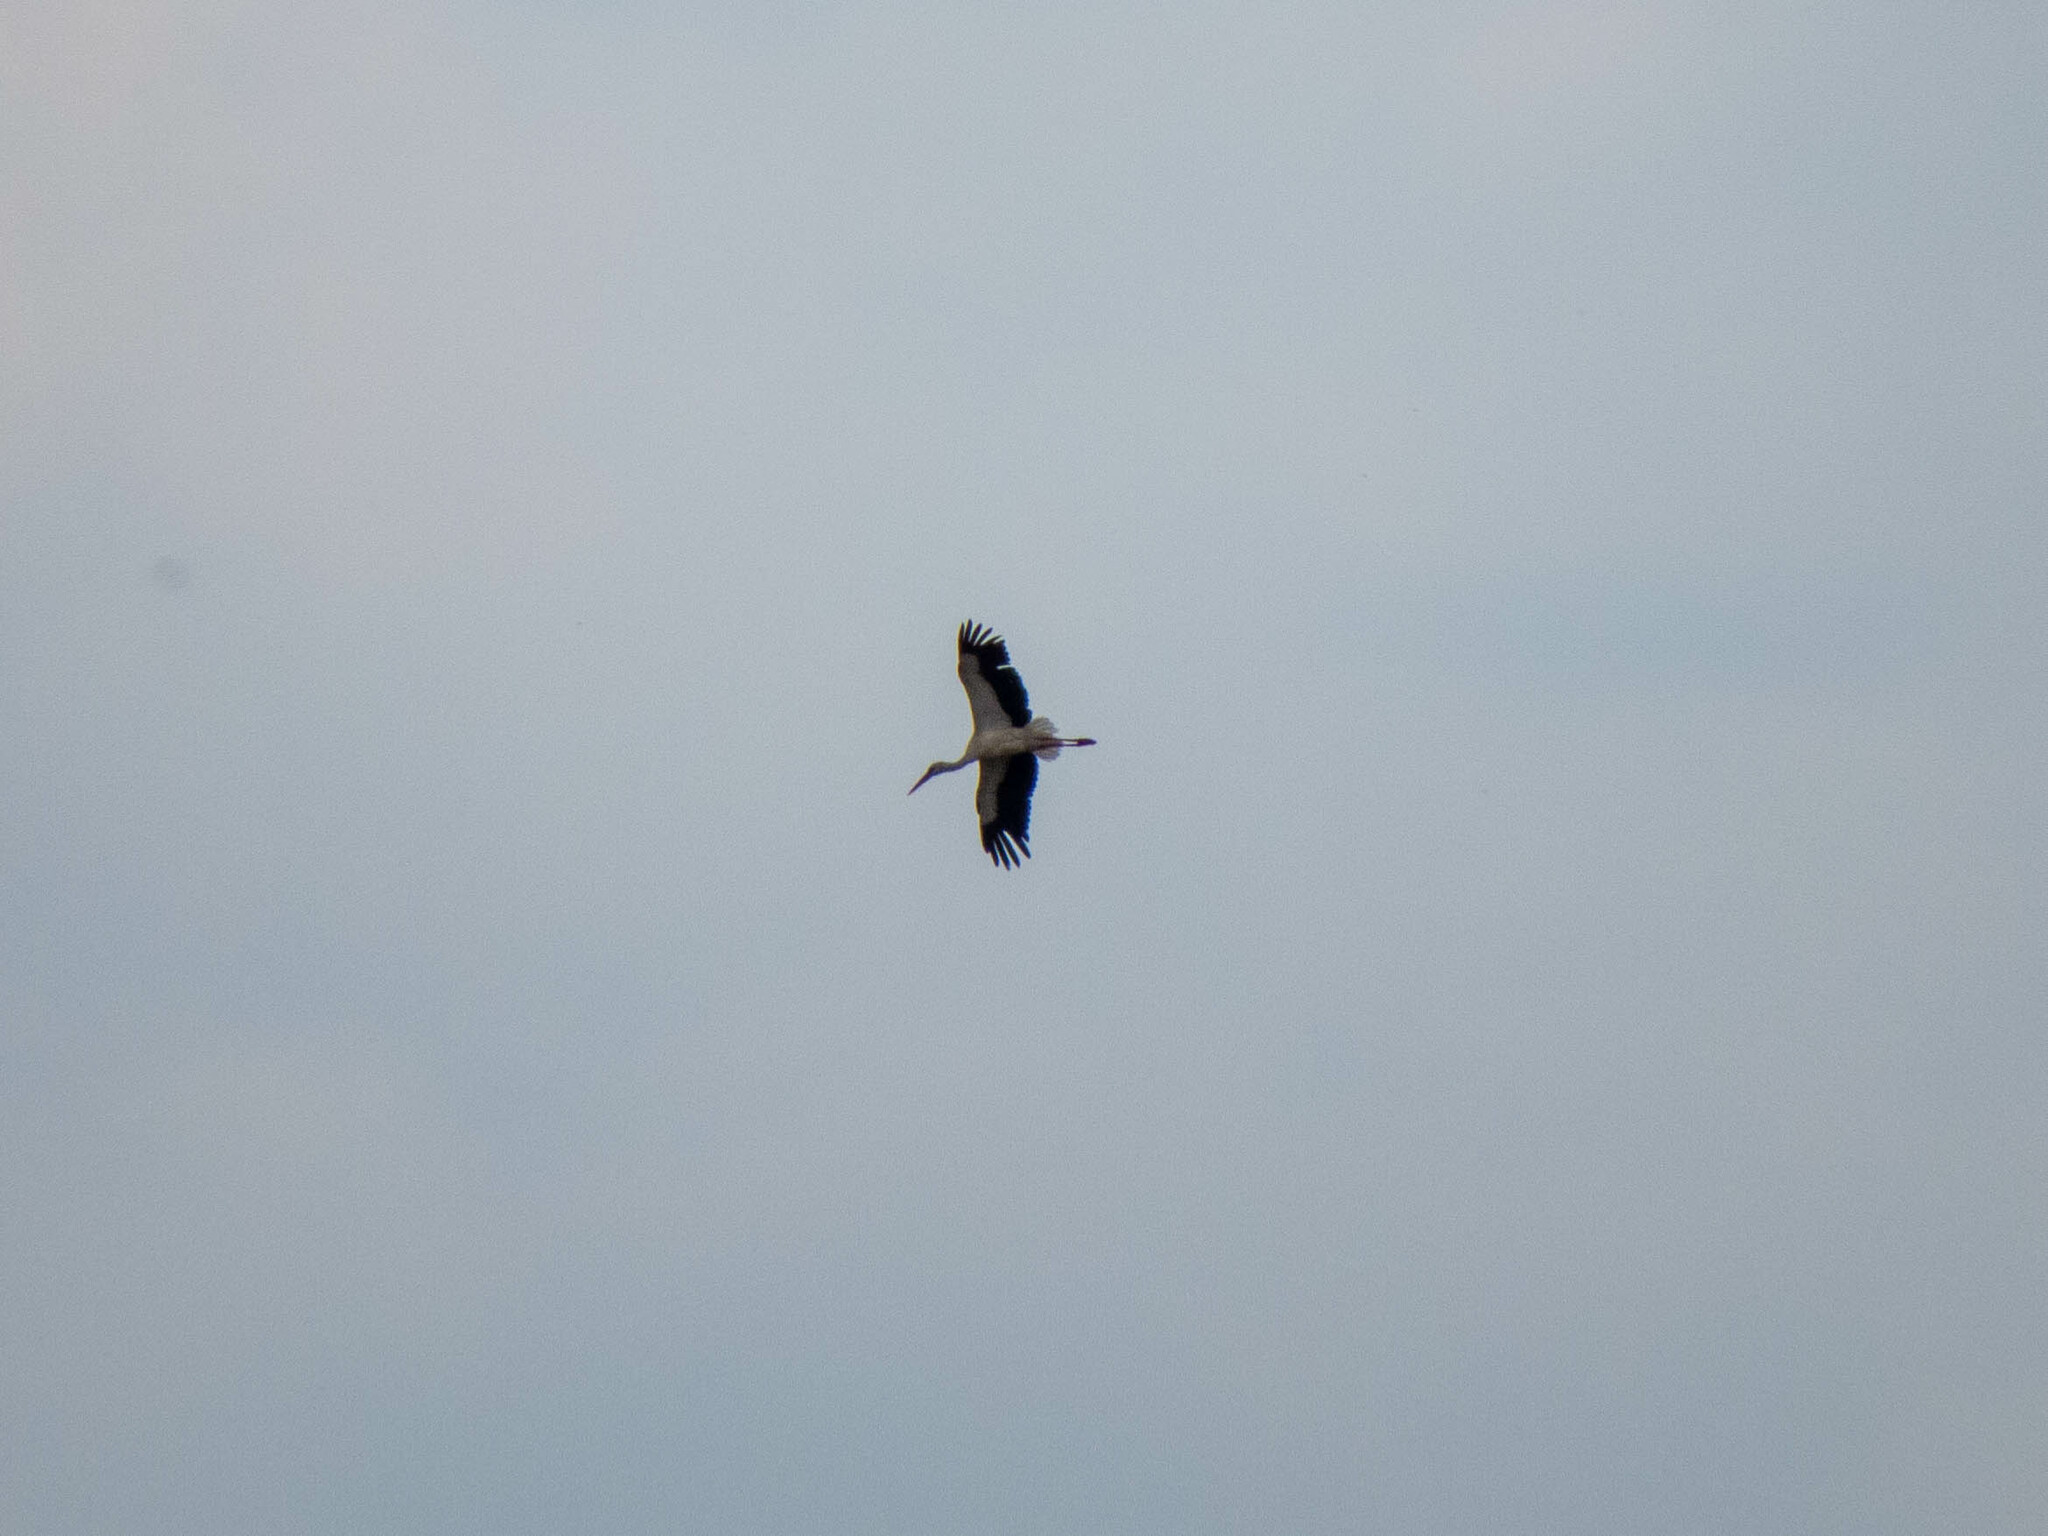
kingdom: Animalia
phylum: Chordata
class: Aves
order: Ciconiiformes
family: Ciconiidae
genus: Ciconia
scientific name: Ciconia ciconia
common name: White stork
